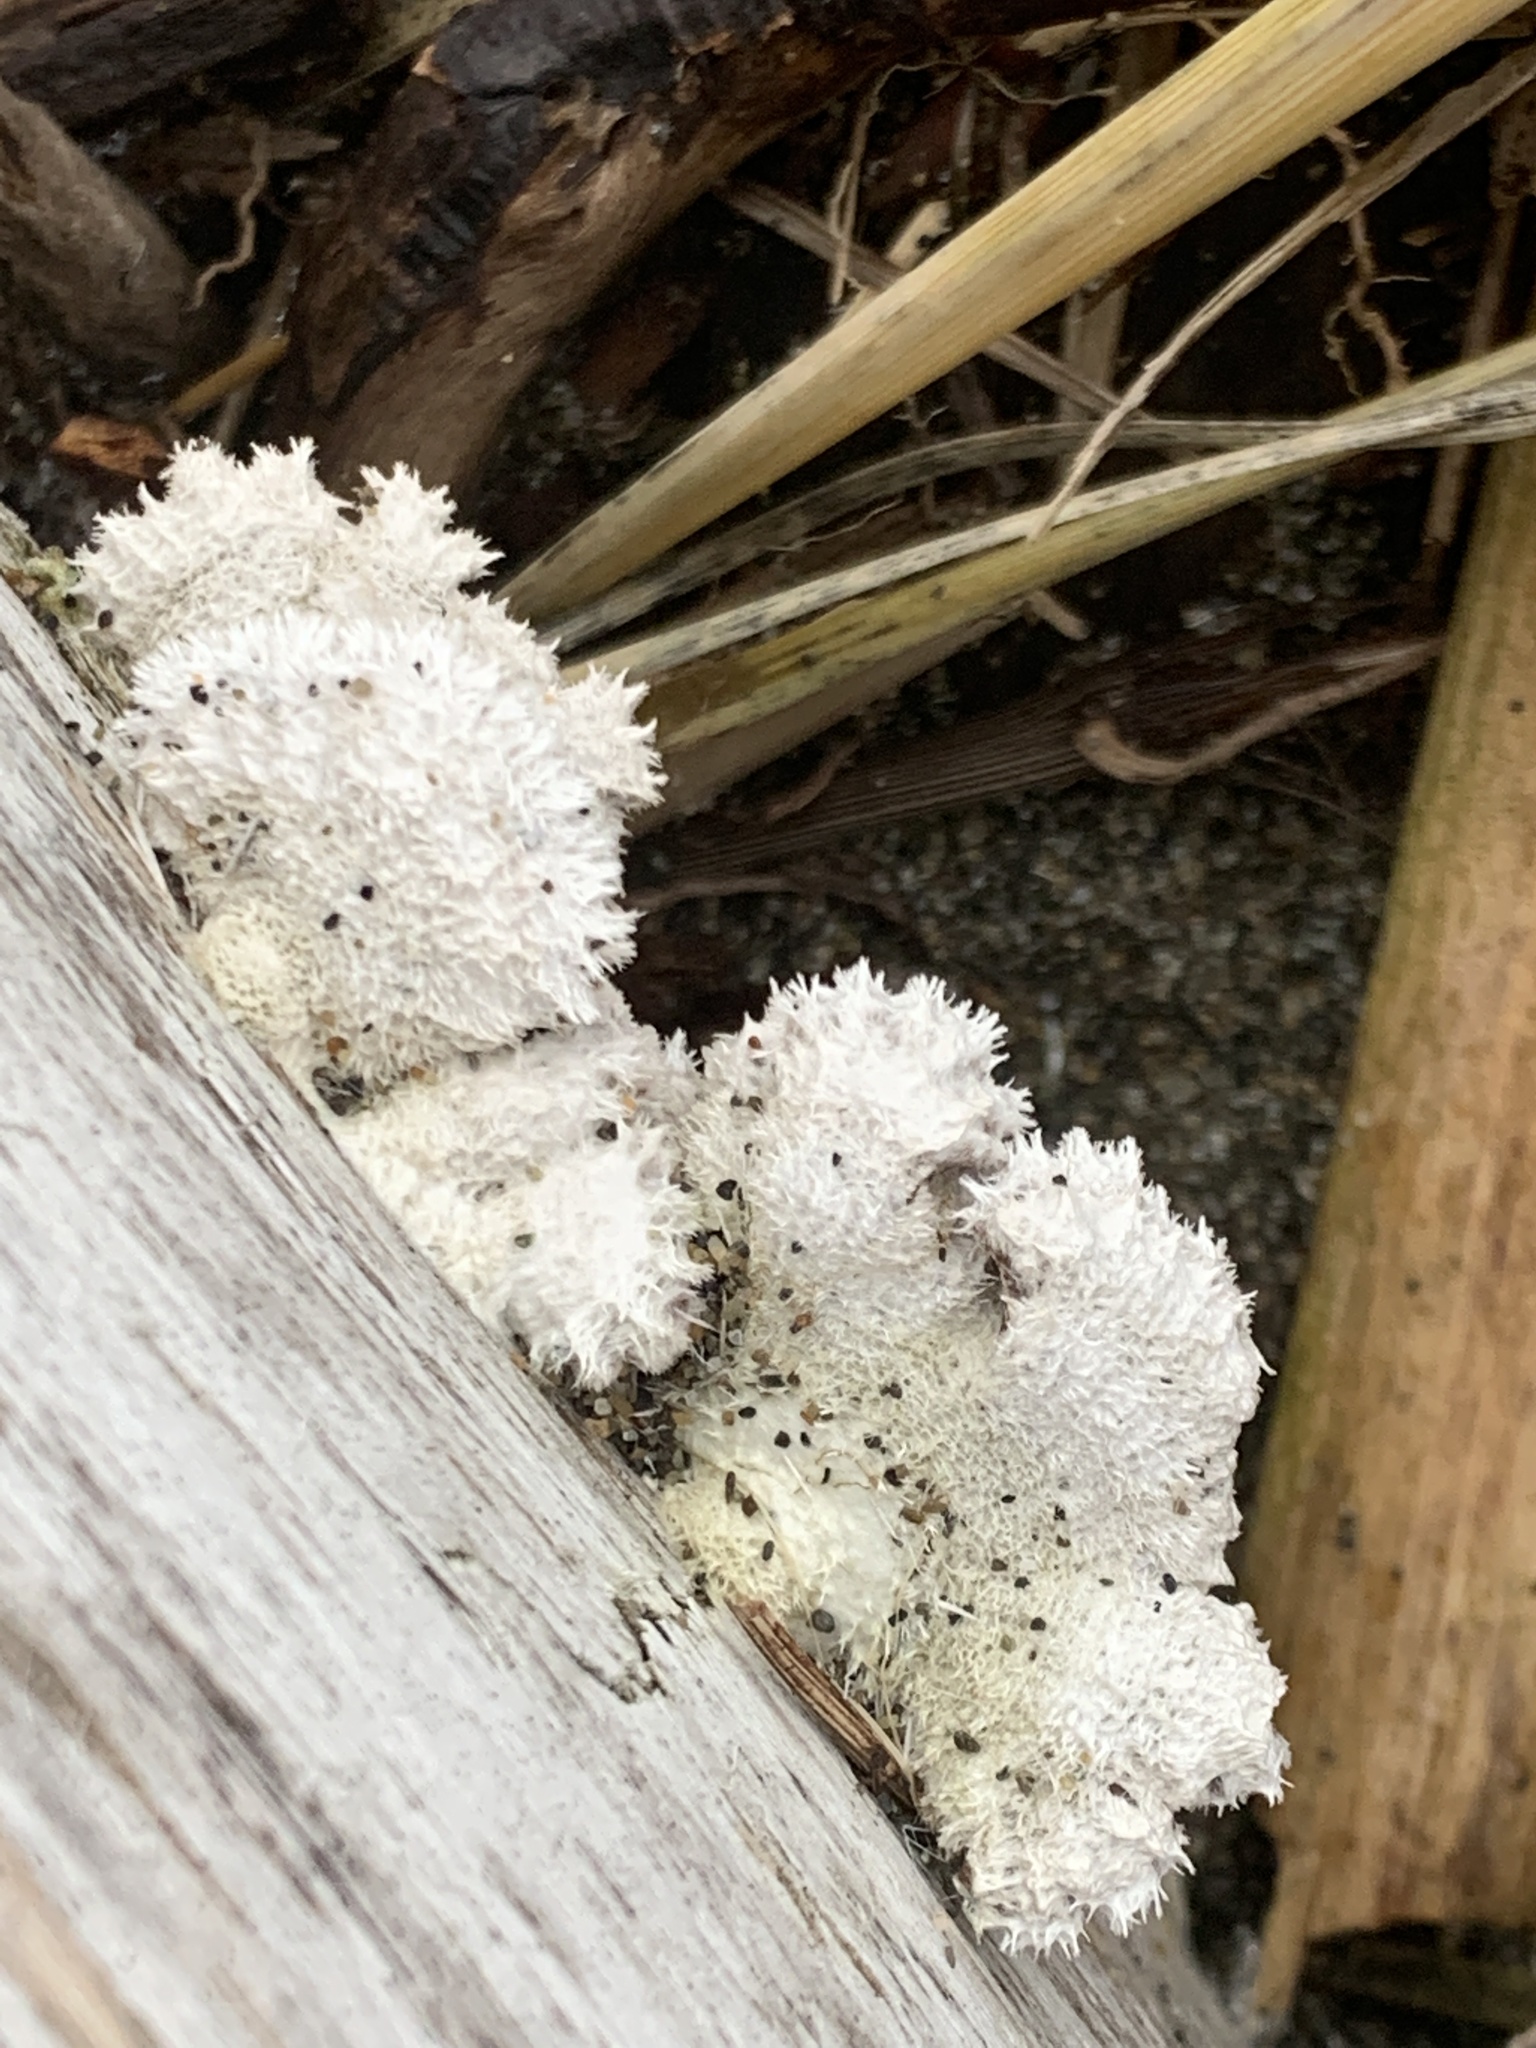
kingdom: Fungi
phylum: Basidiomycota
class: Agaricomycetes
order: Agaricales
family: Schizophyllaceae
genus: Schizophyllum
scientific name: Schizophyllum commune
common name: Common porecrust
